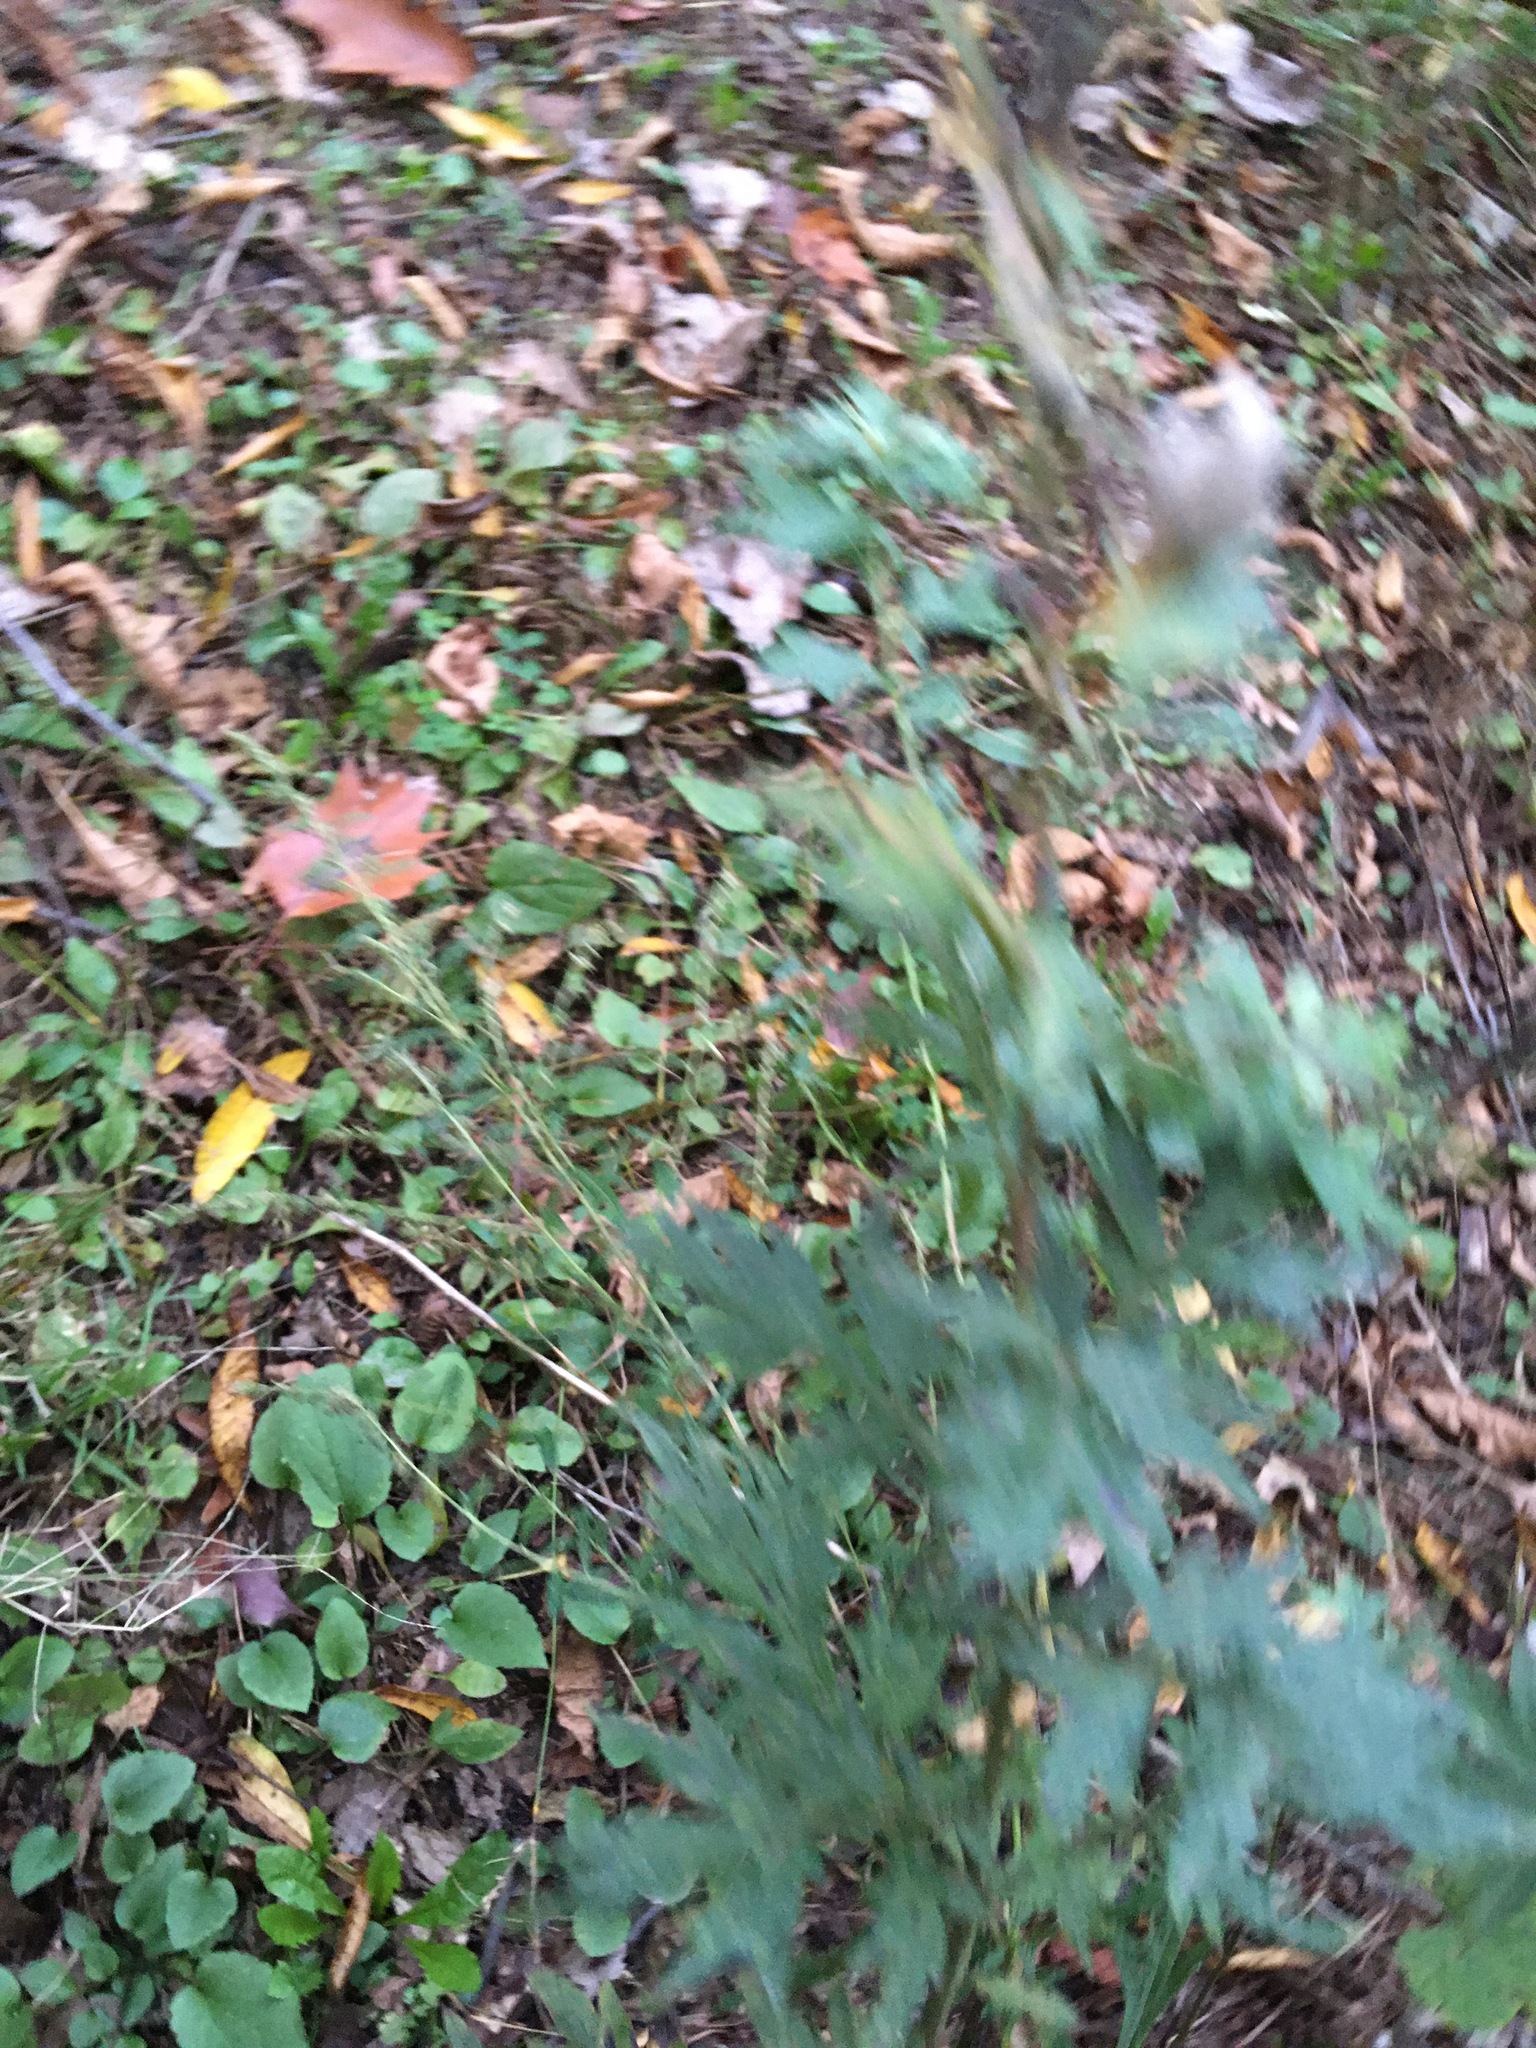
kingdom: Plantae
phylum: Tracheophyta
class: Magnoliopsida
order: Asterales
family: Asteraceae
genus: Artemisia
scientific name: Artemisia vulgaris
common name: Mugwort
